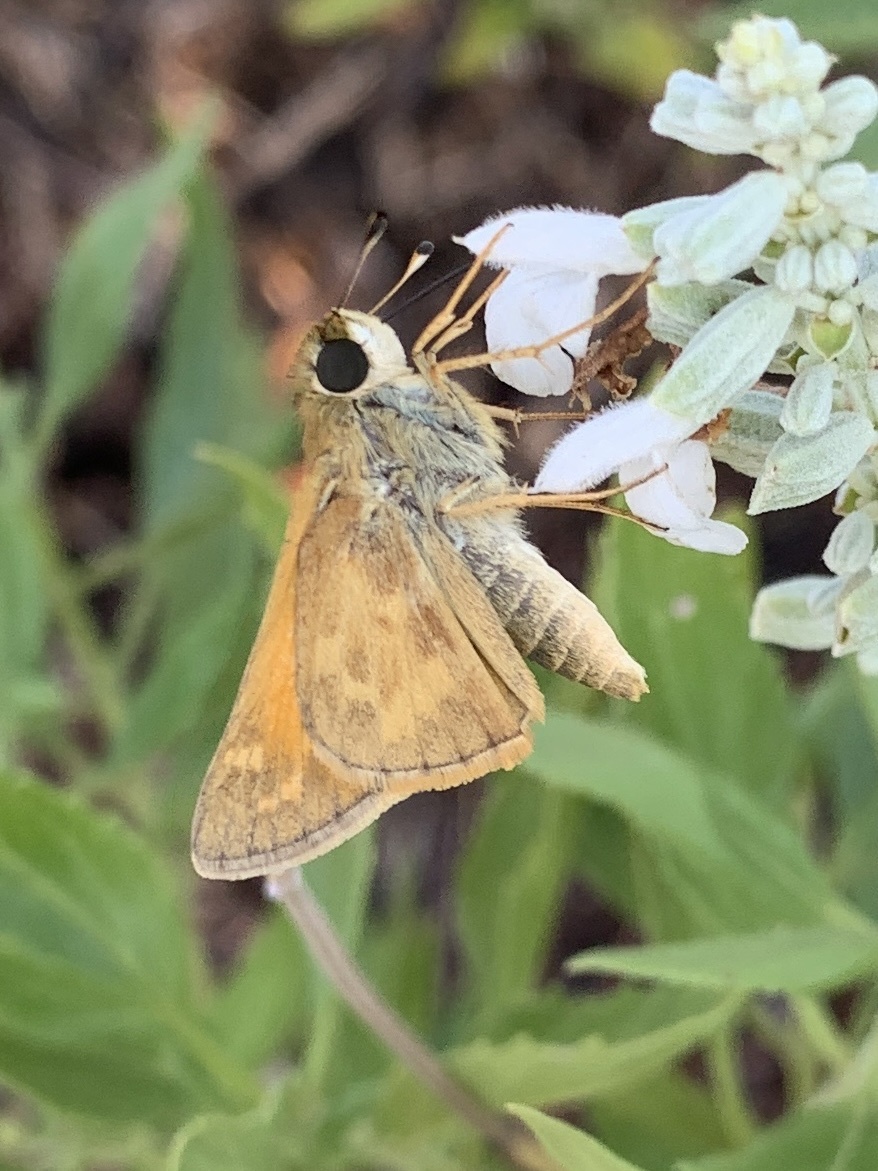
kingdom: Animalia
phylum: Arthropoda
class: Insecta
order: Lepidoptera
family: Hesperiidae
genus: Atalopedes
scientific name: Atalopedes
